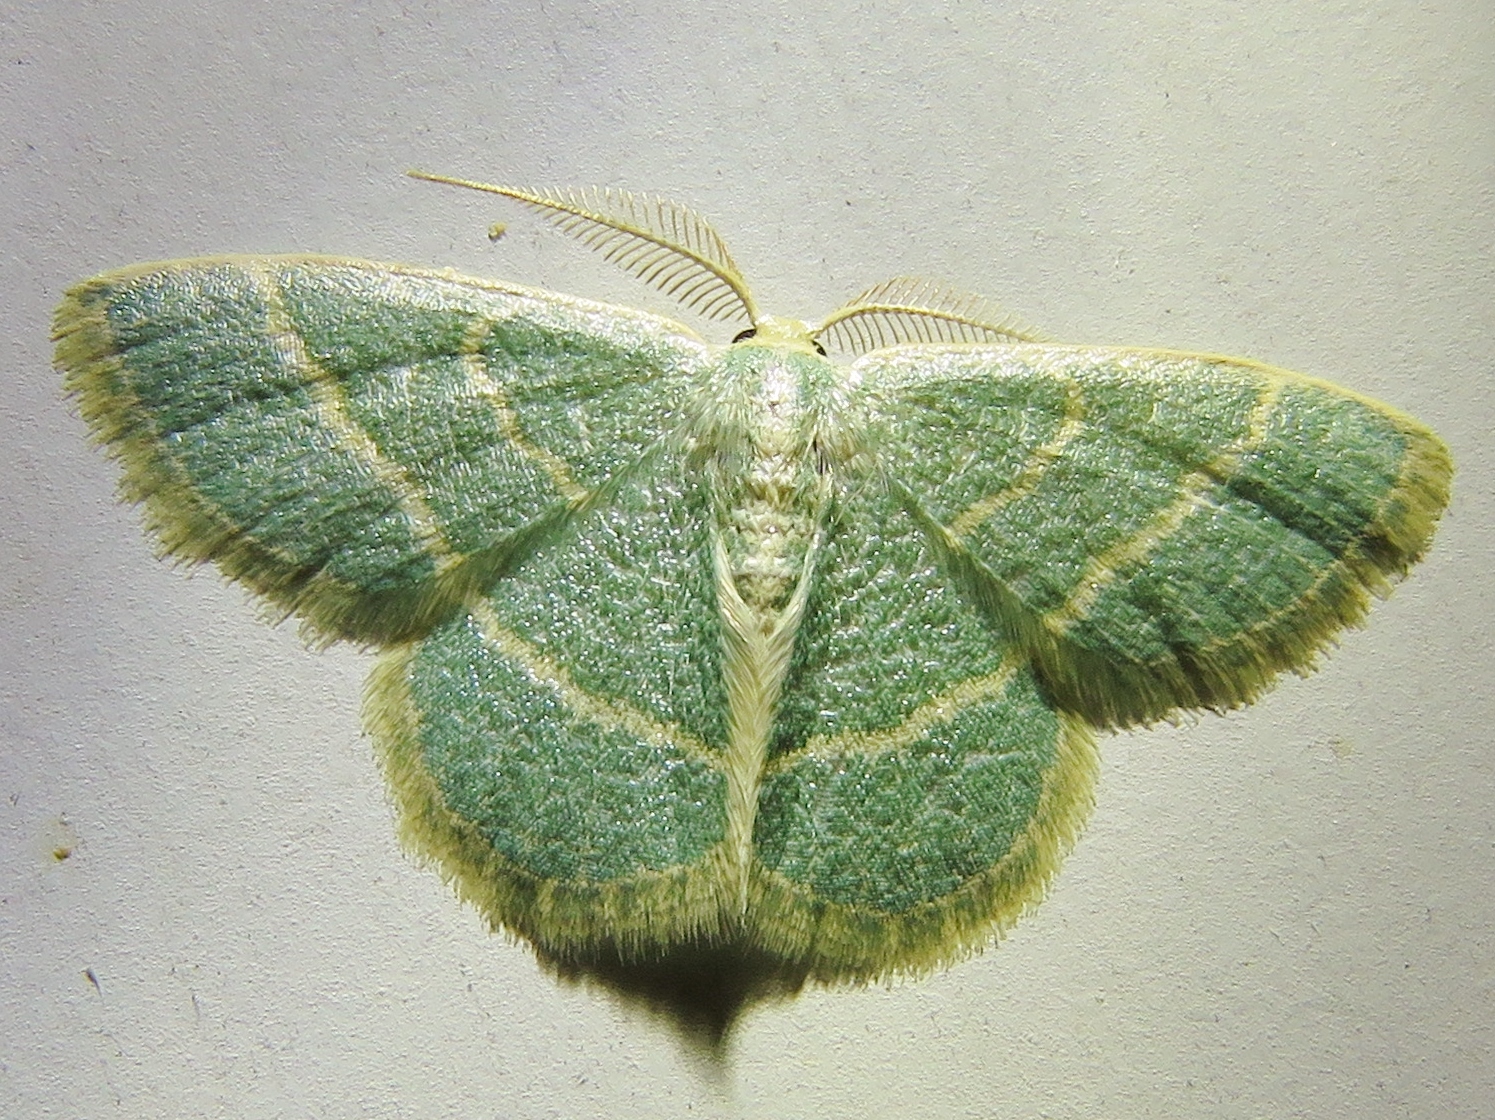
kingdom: Animalia
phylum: Arthropoda
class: Insecta
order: Lepidoptera
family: Geometridae
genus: Chlorochlamys
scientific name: Chlorochlamys chloroleucaria
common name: Blackberry looper
